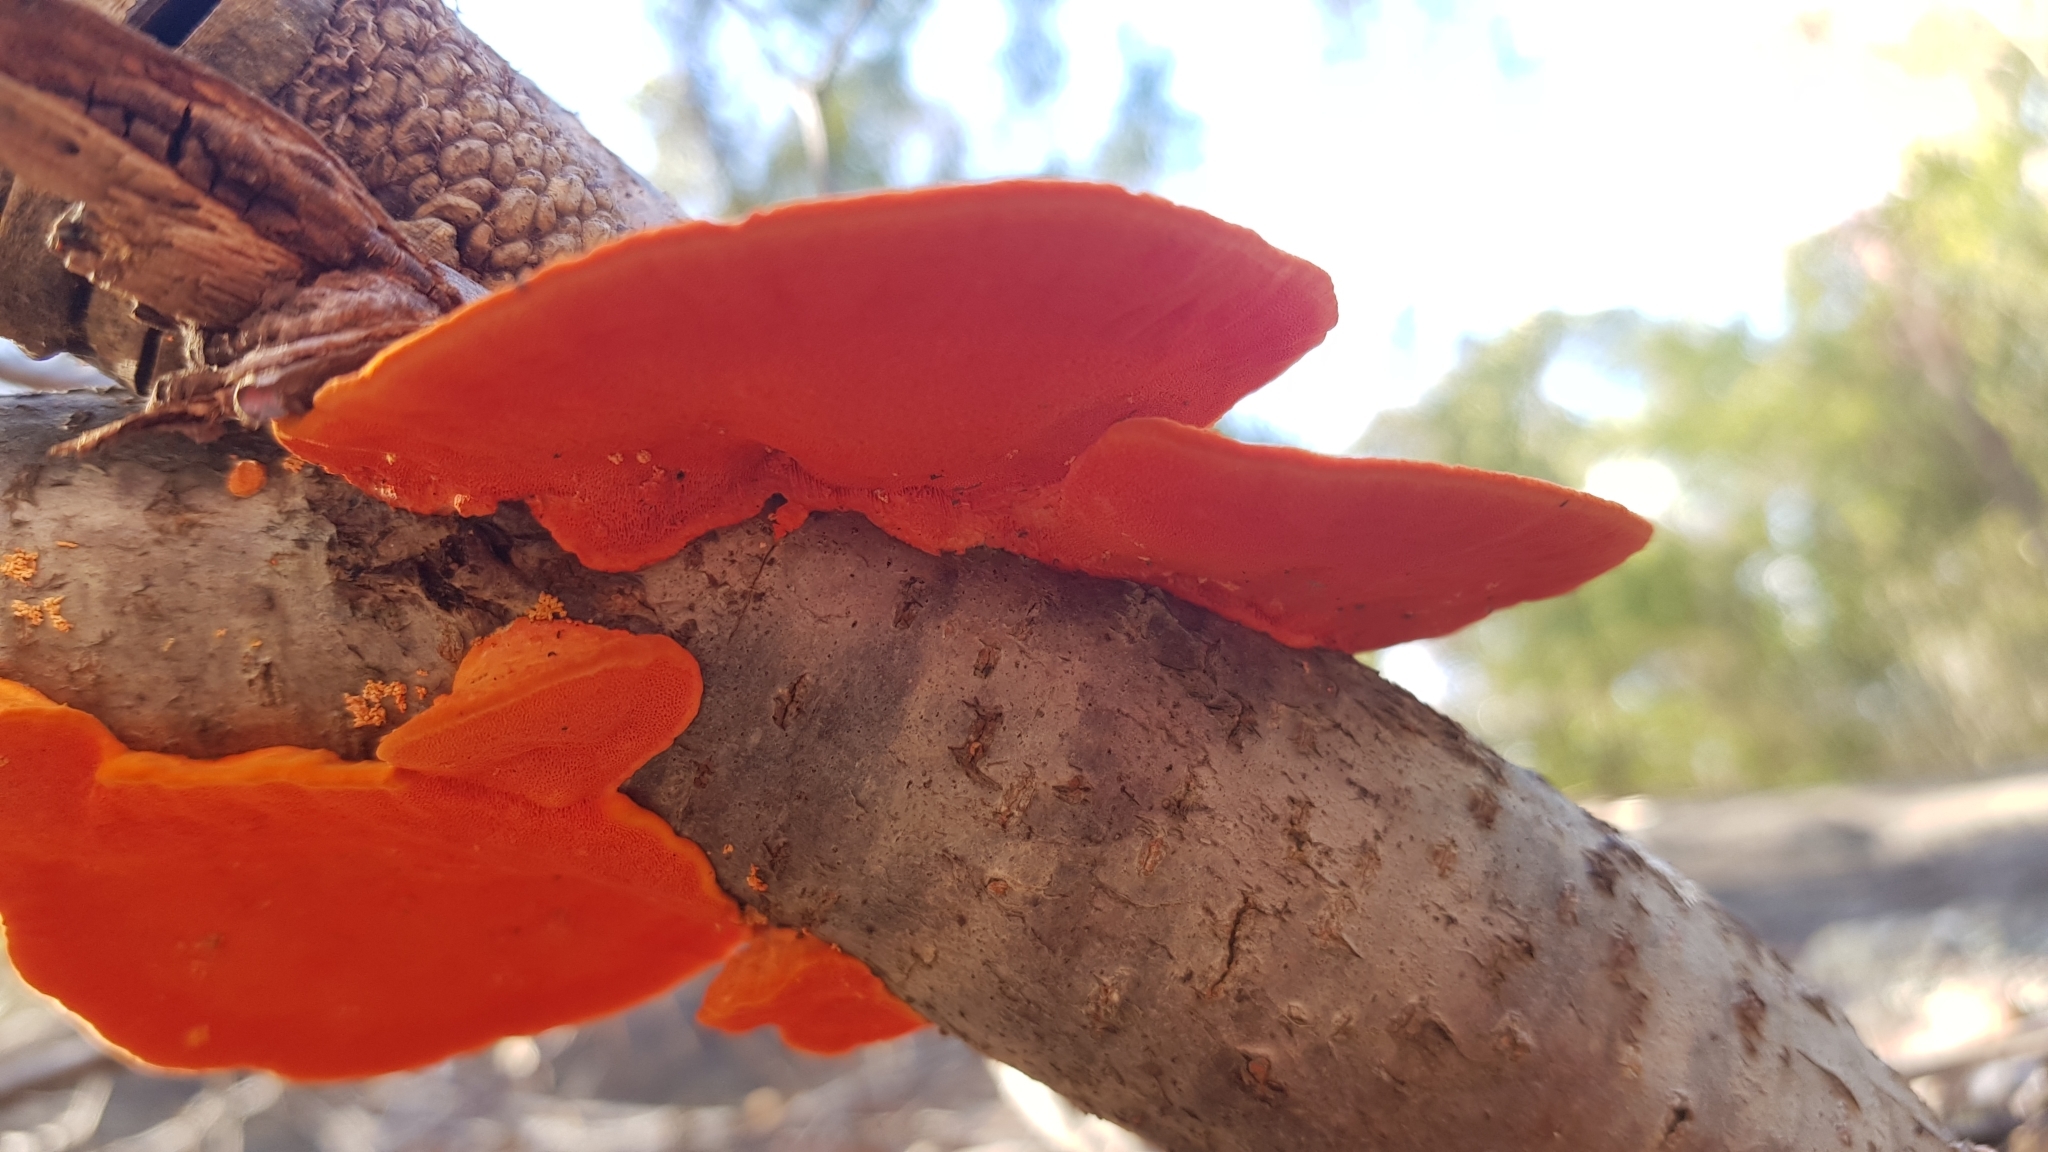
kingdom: Fungi
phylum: Basidiomycota
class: Agaricomycetes
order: Polyporales
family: Polyporaceae
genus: Trametes
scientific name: Trametes coccinea
